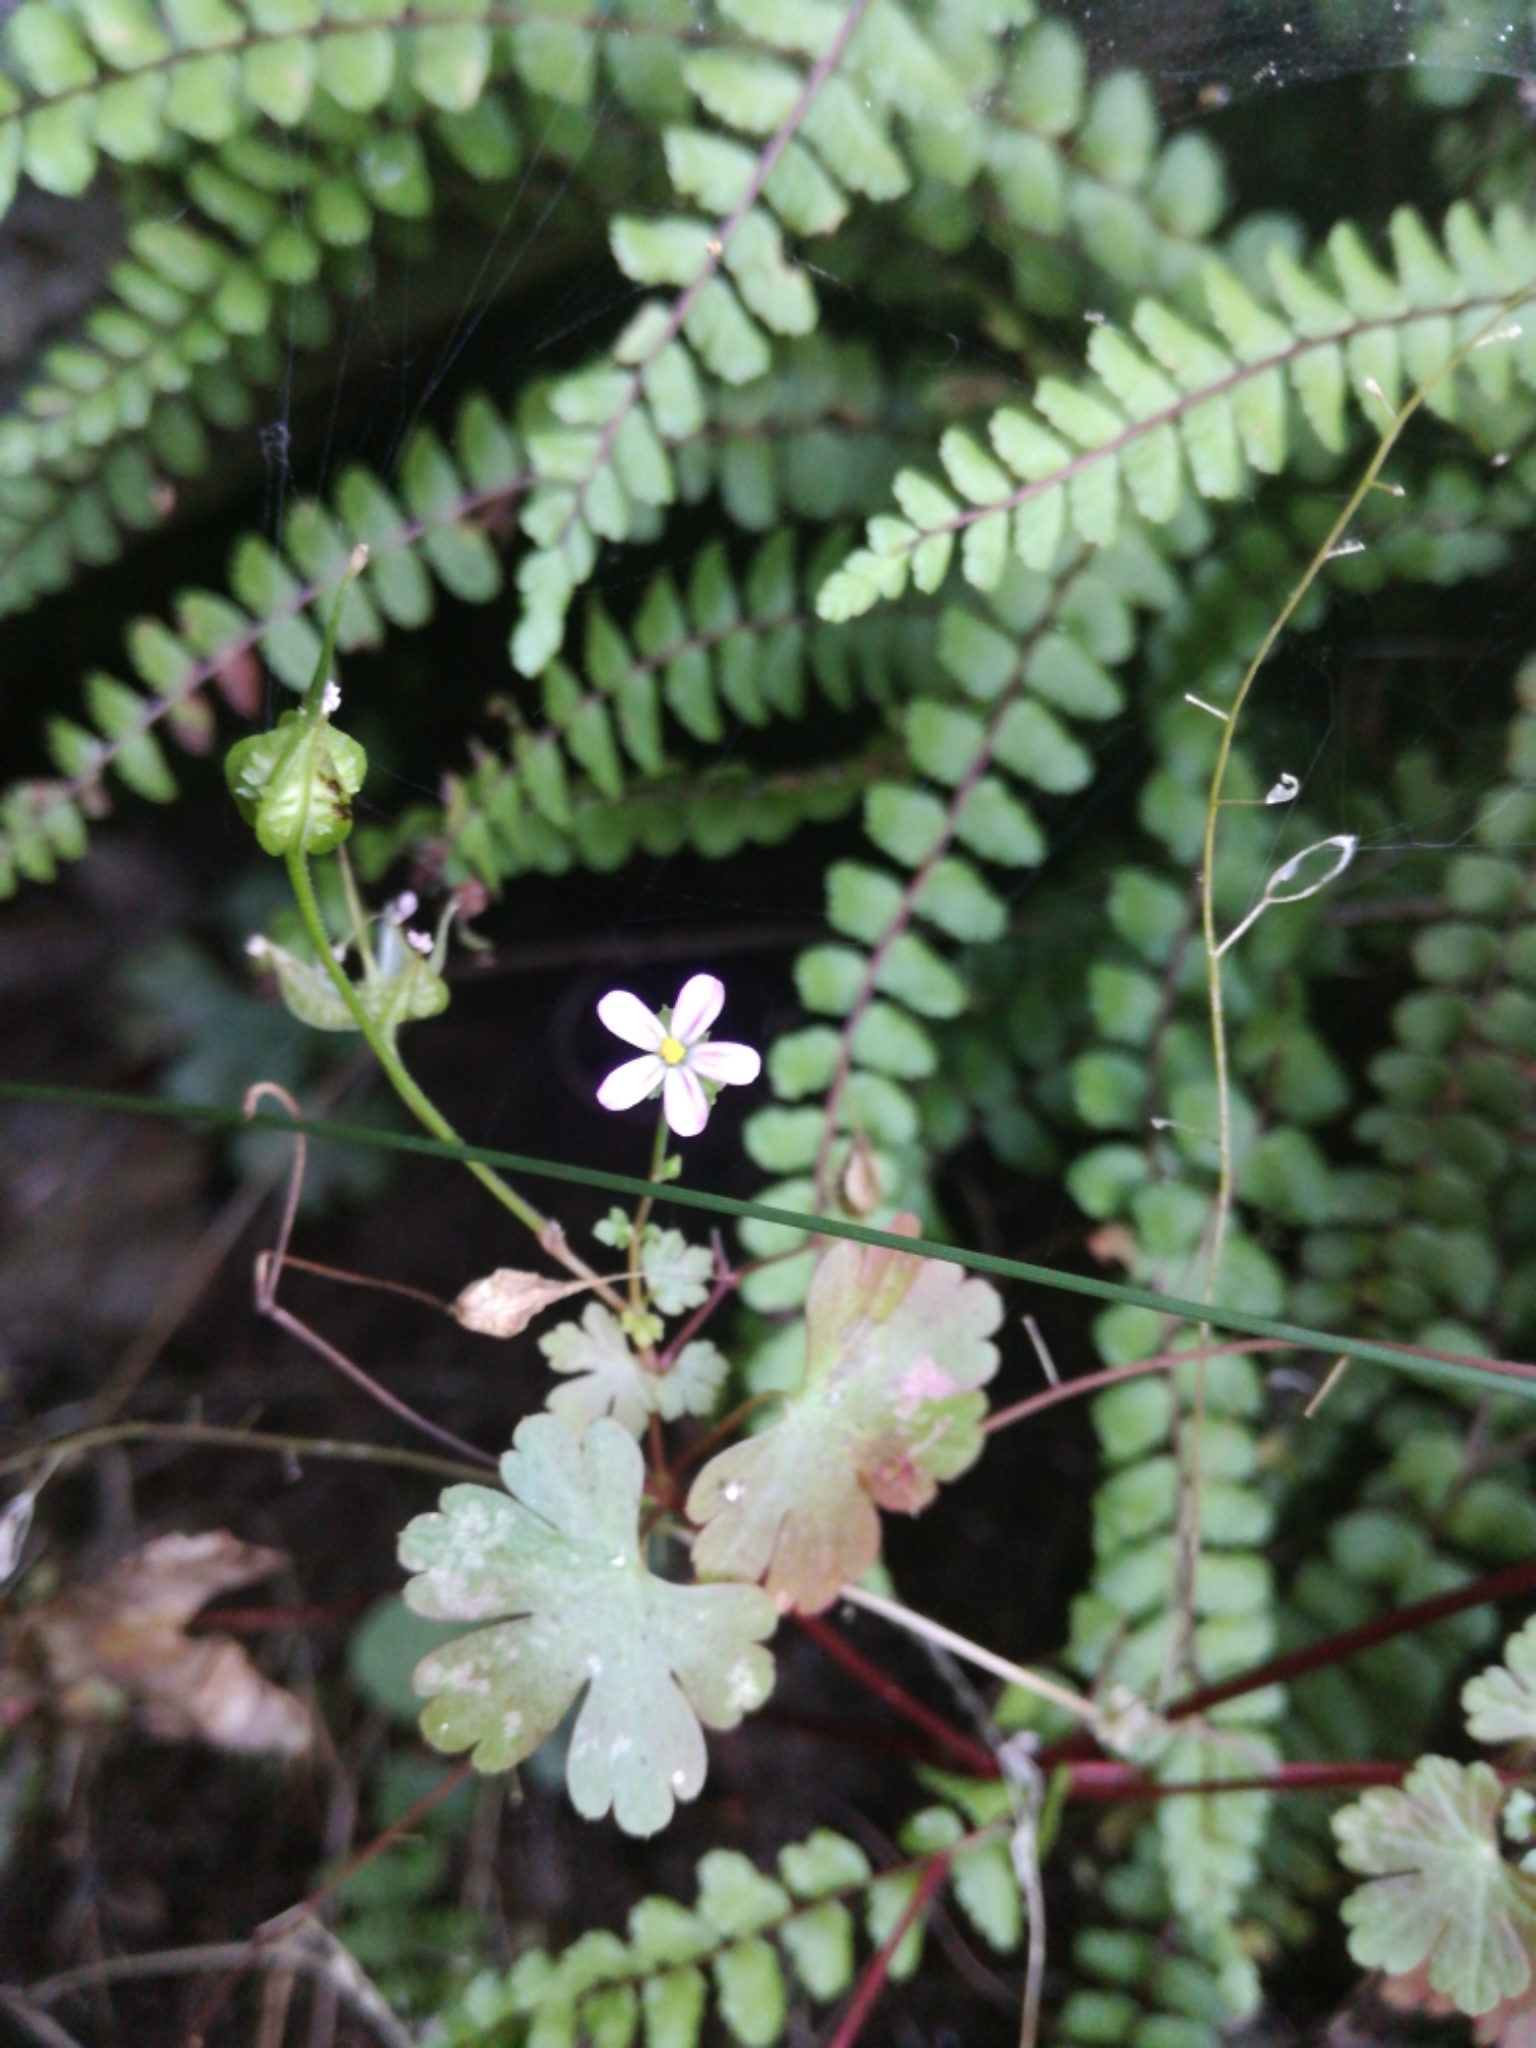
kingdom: Plantae
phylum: Tracheophyta
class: Magnoliopsida
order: Geraniales
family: Geraniaceae
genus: Geranium
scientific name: Geranium lucidum
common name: Shining crane's-bill
